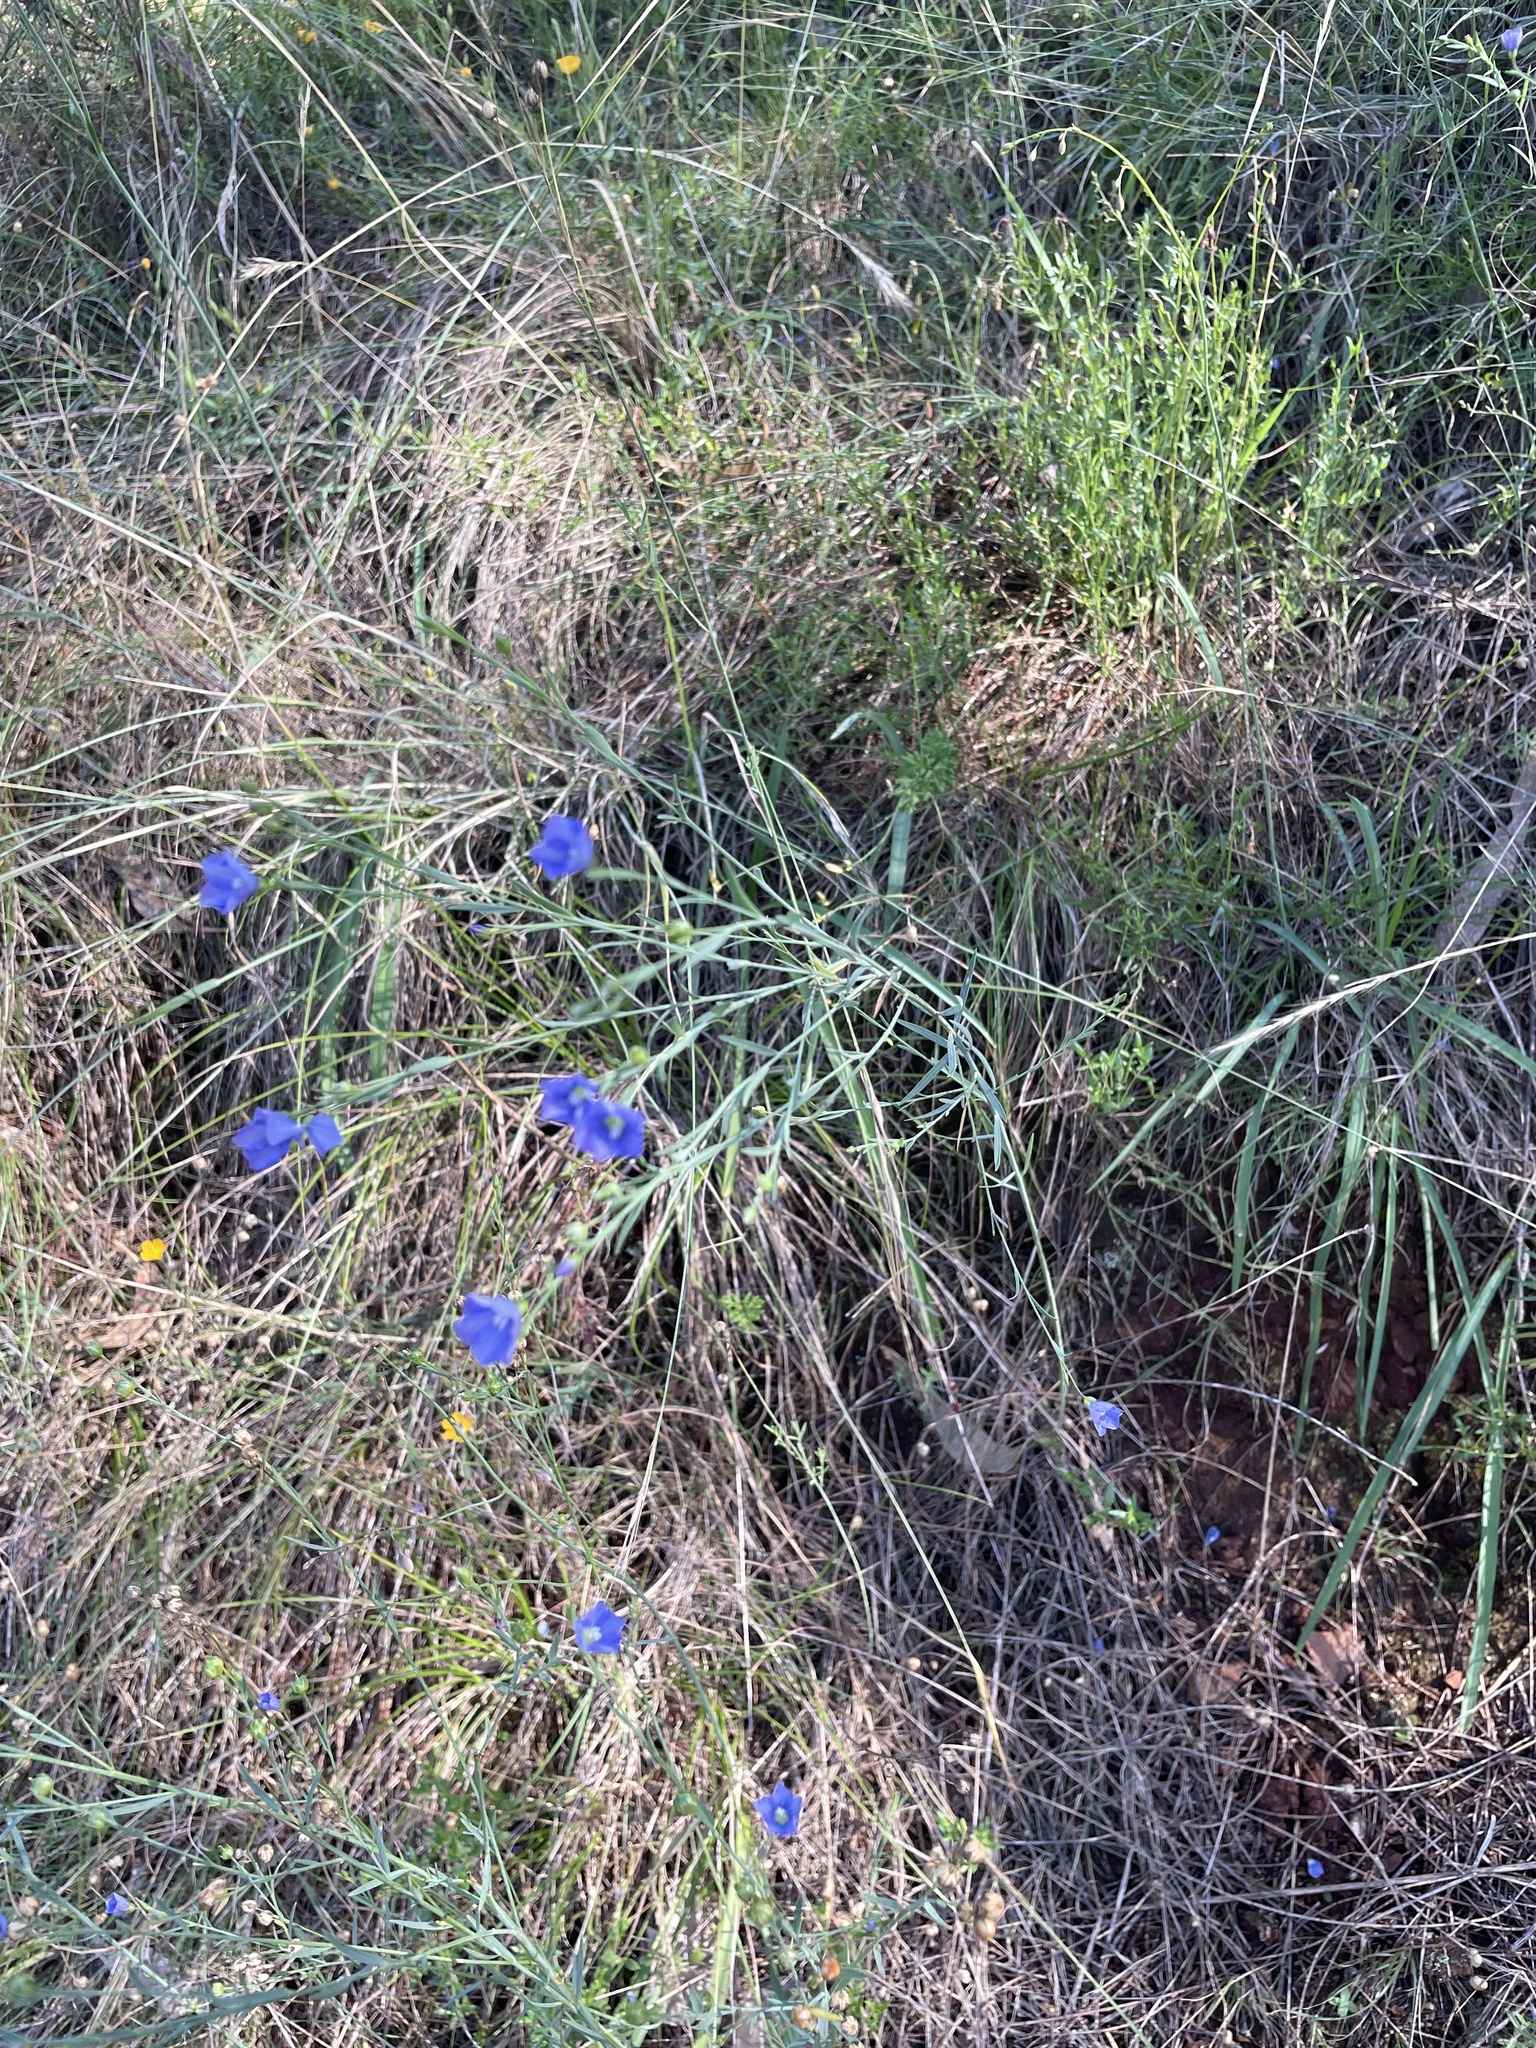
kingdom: Plantae
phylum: Tracheophyta
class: Magnoliopsida
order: Malpighiales
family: Linaceae
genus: Linum
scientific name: Linum marginale
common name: Wild flax
